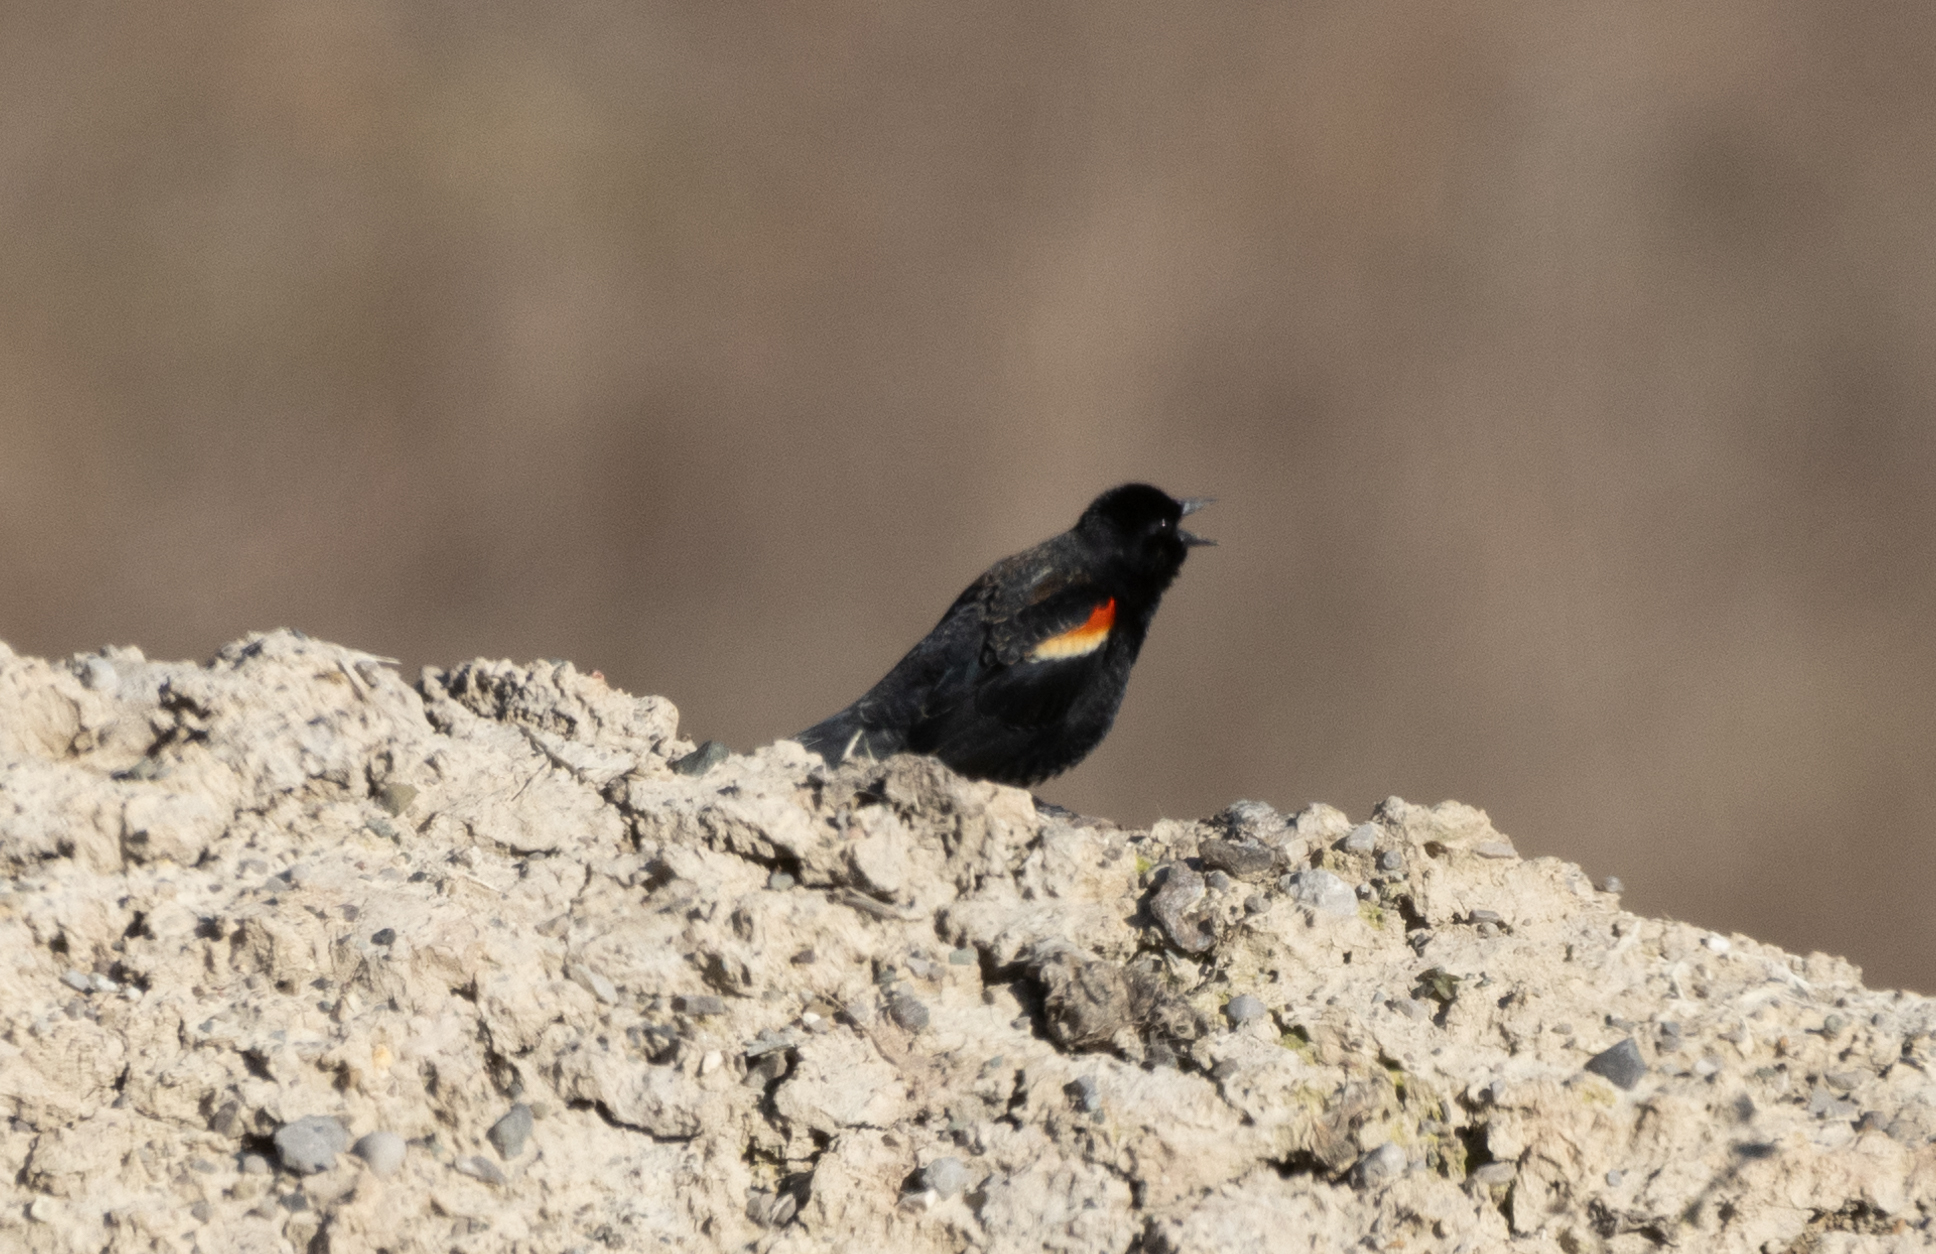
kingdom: Animalia
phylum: Chordata
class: Aves
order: Passeriformes
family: Icteridae
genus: Agelaius
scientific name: Agelaius phoeniceus
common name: Red-winged blackbird
